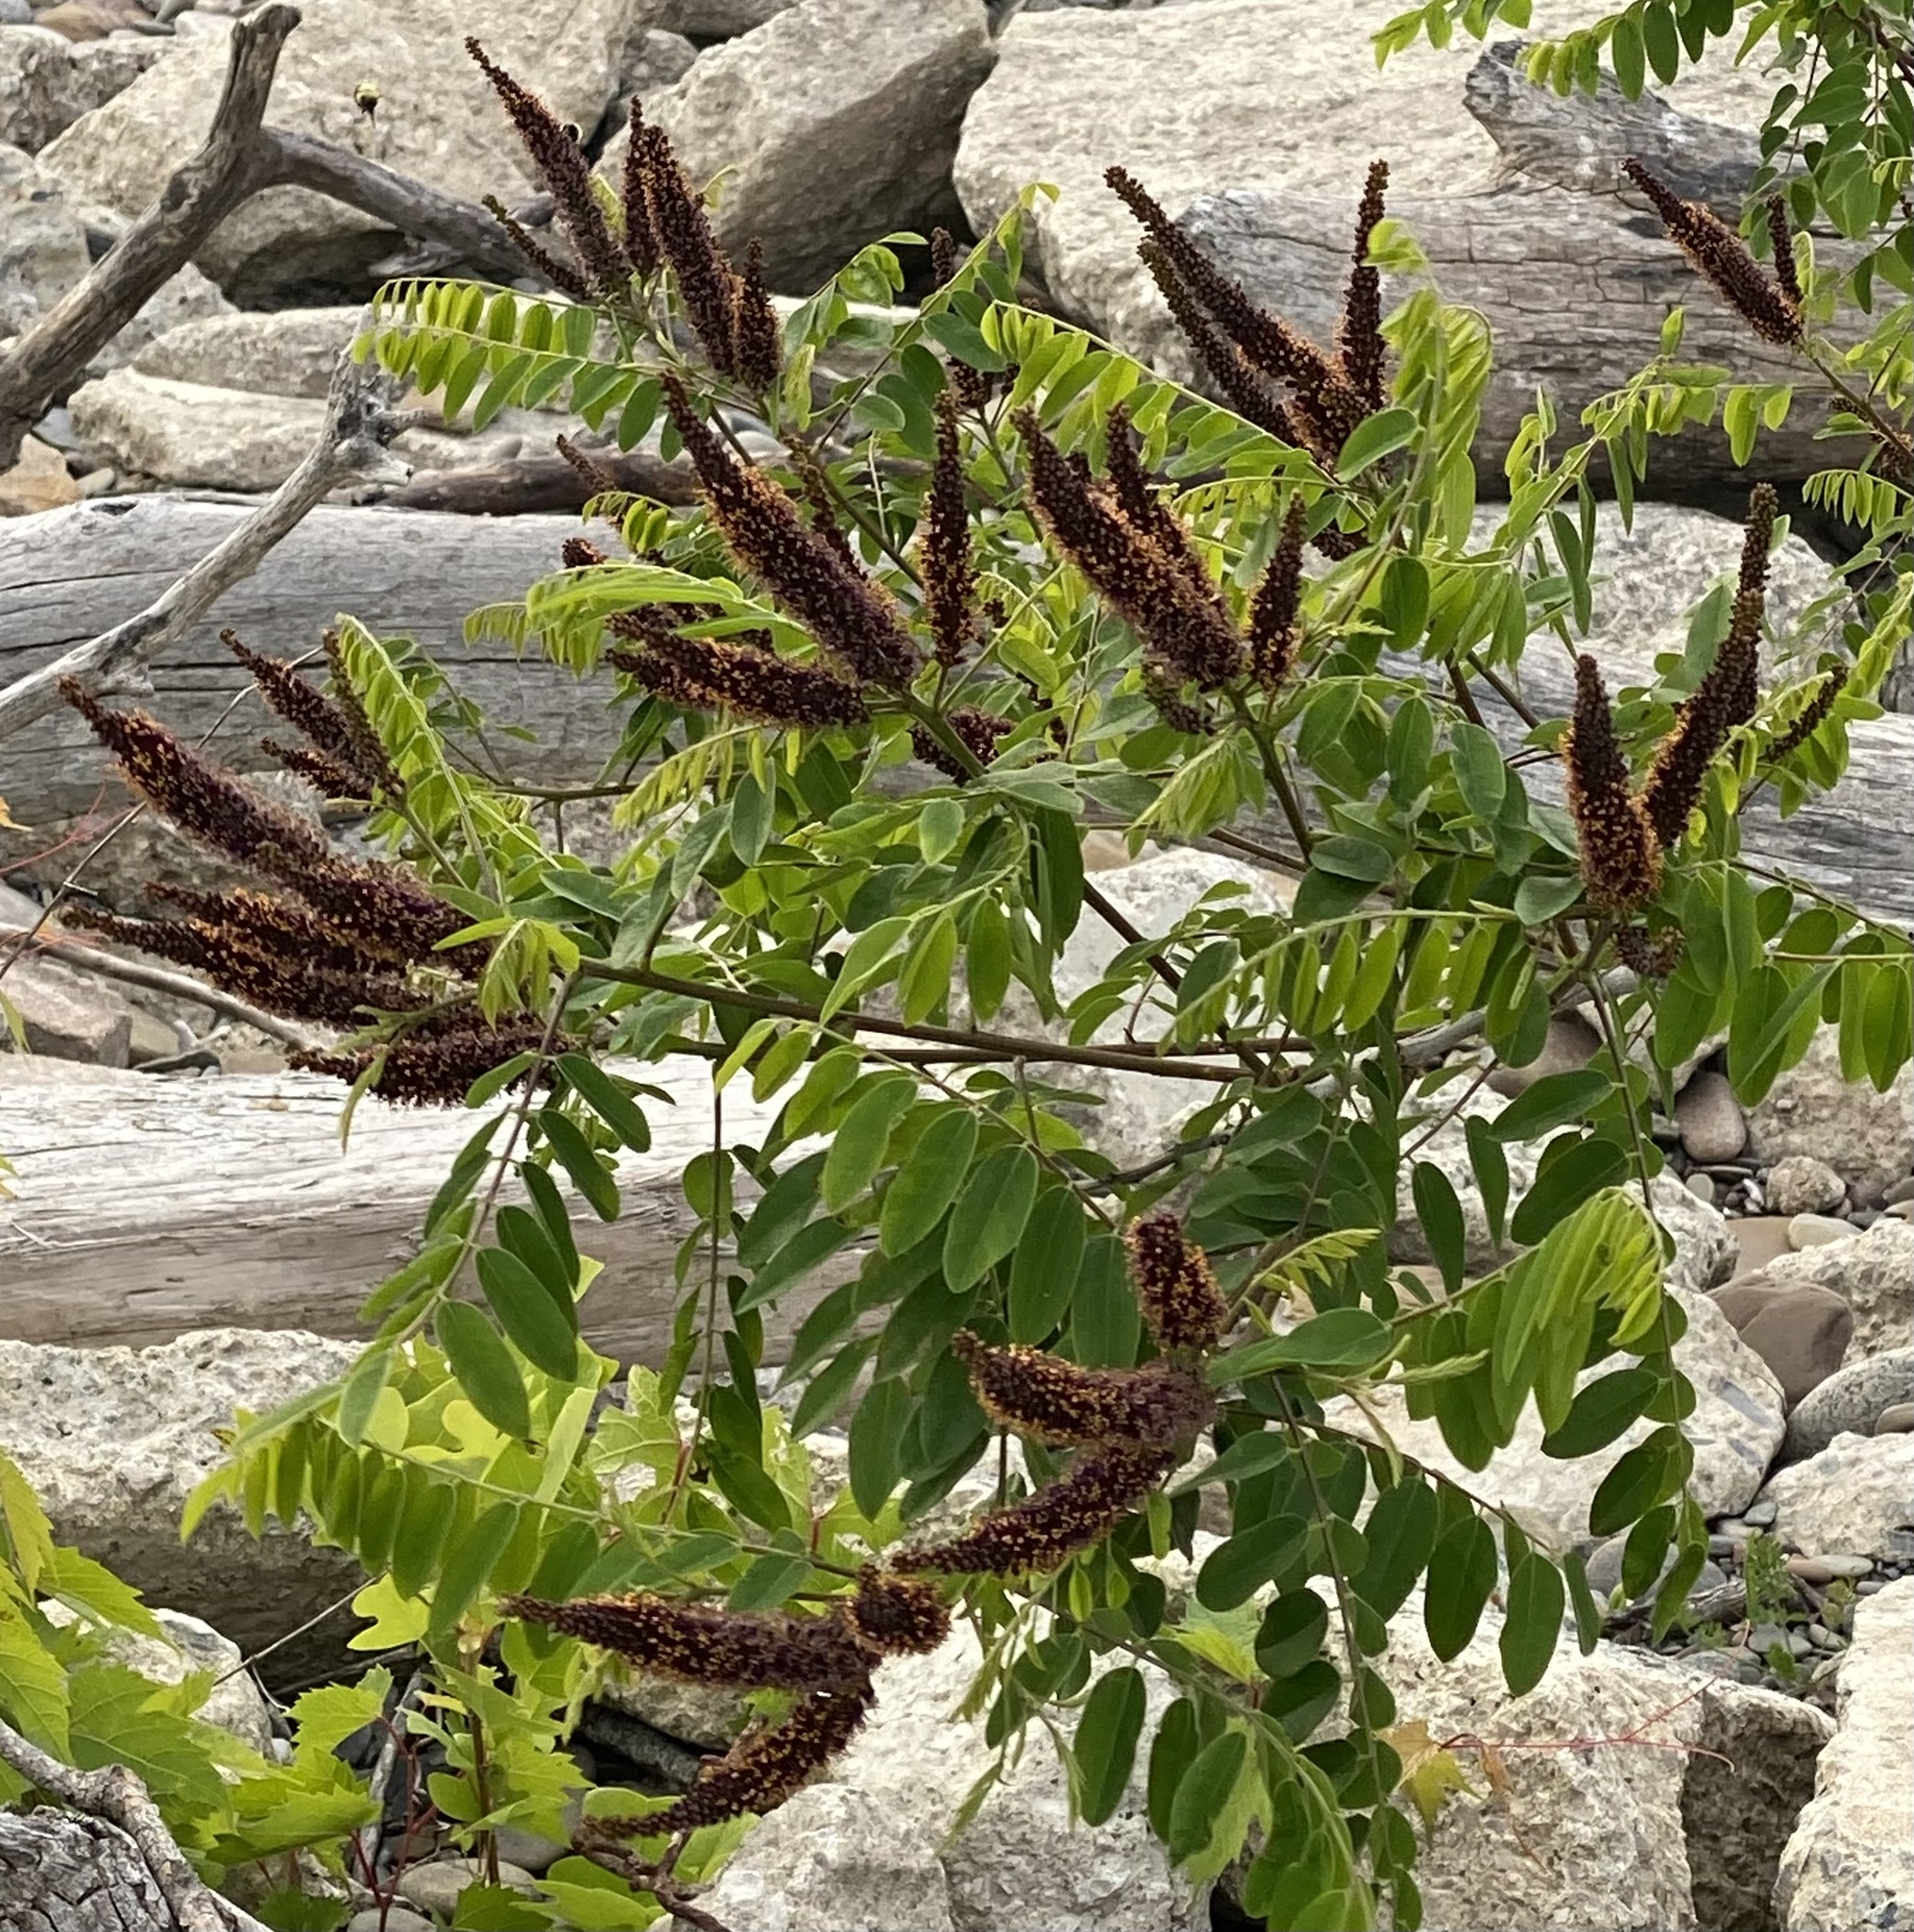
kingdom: Plantae
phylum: Tracheophyta
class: Magnoliopsida
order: Fabales
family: Fabaceae
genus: Amorpha
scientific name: Amorpha fruticosa
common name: False indigo
